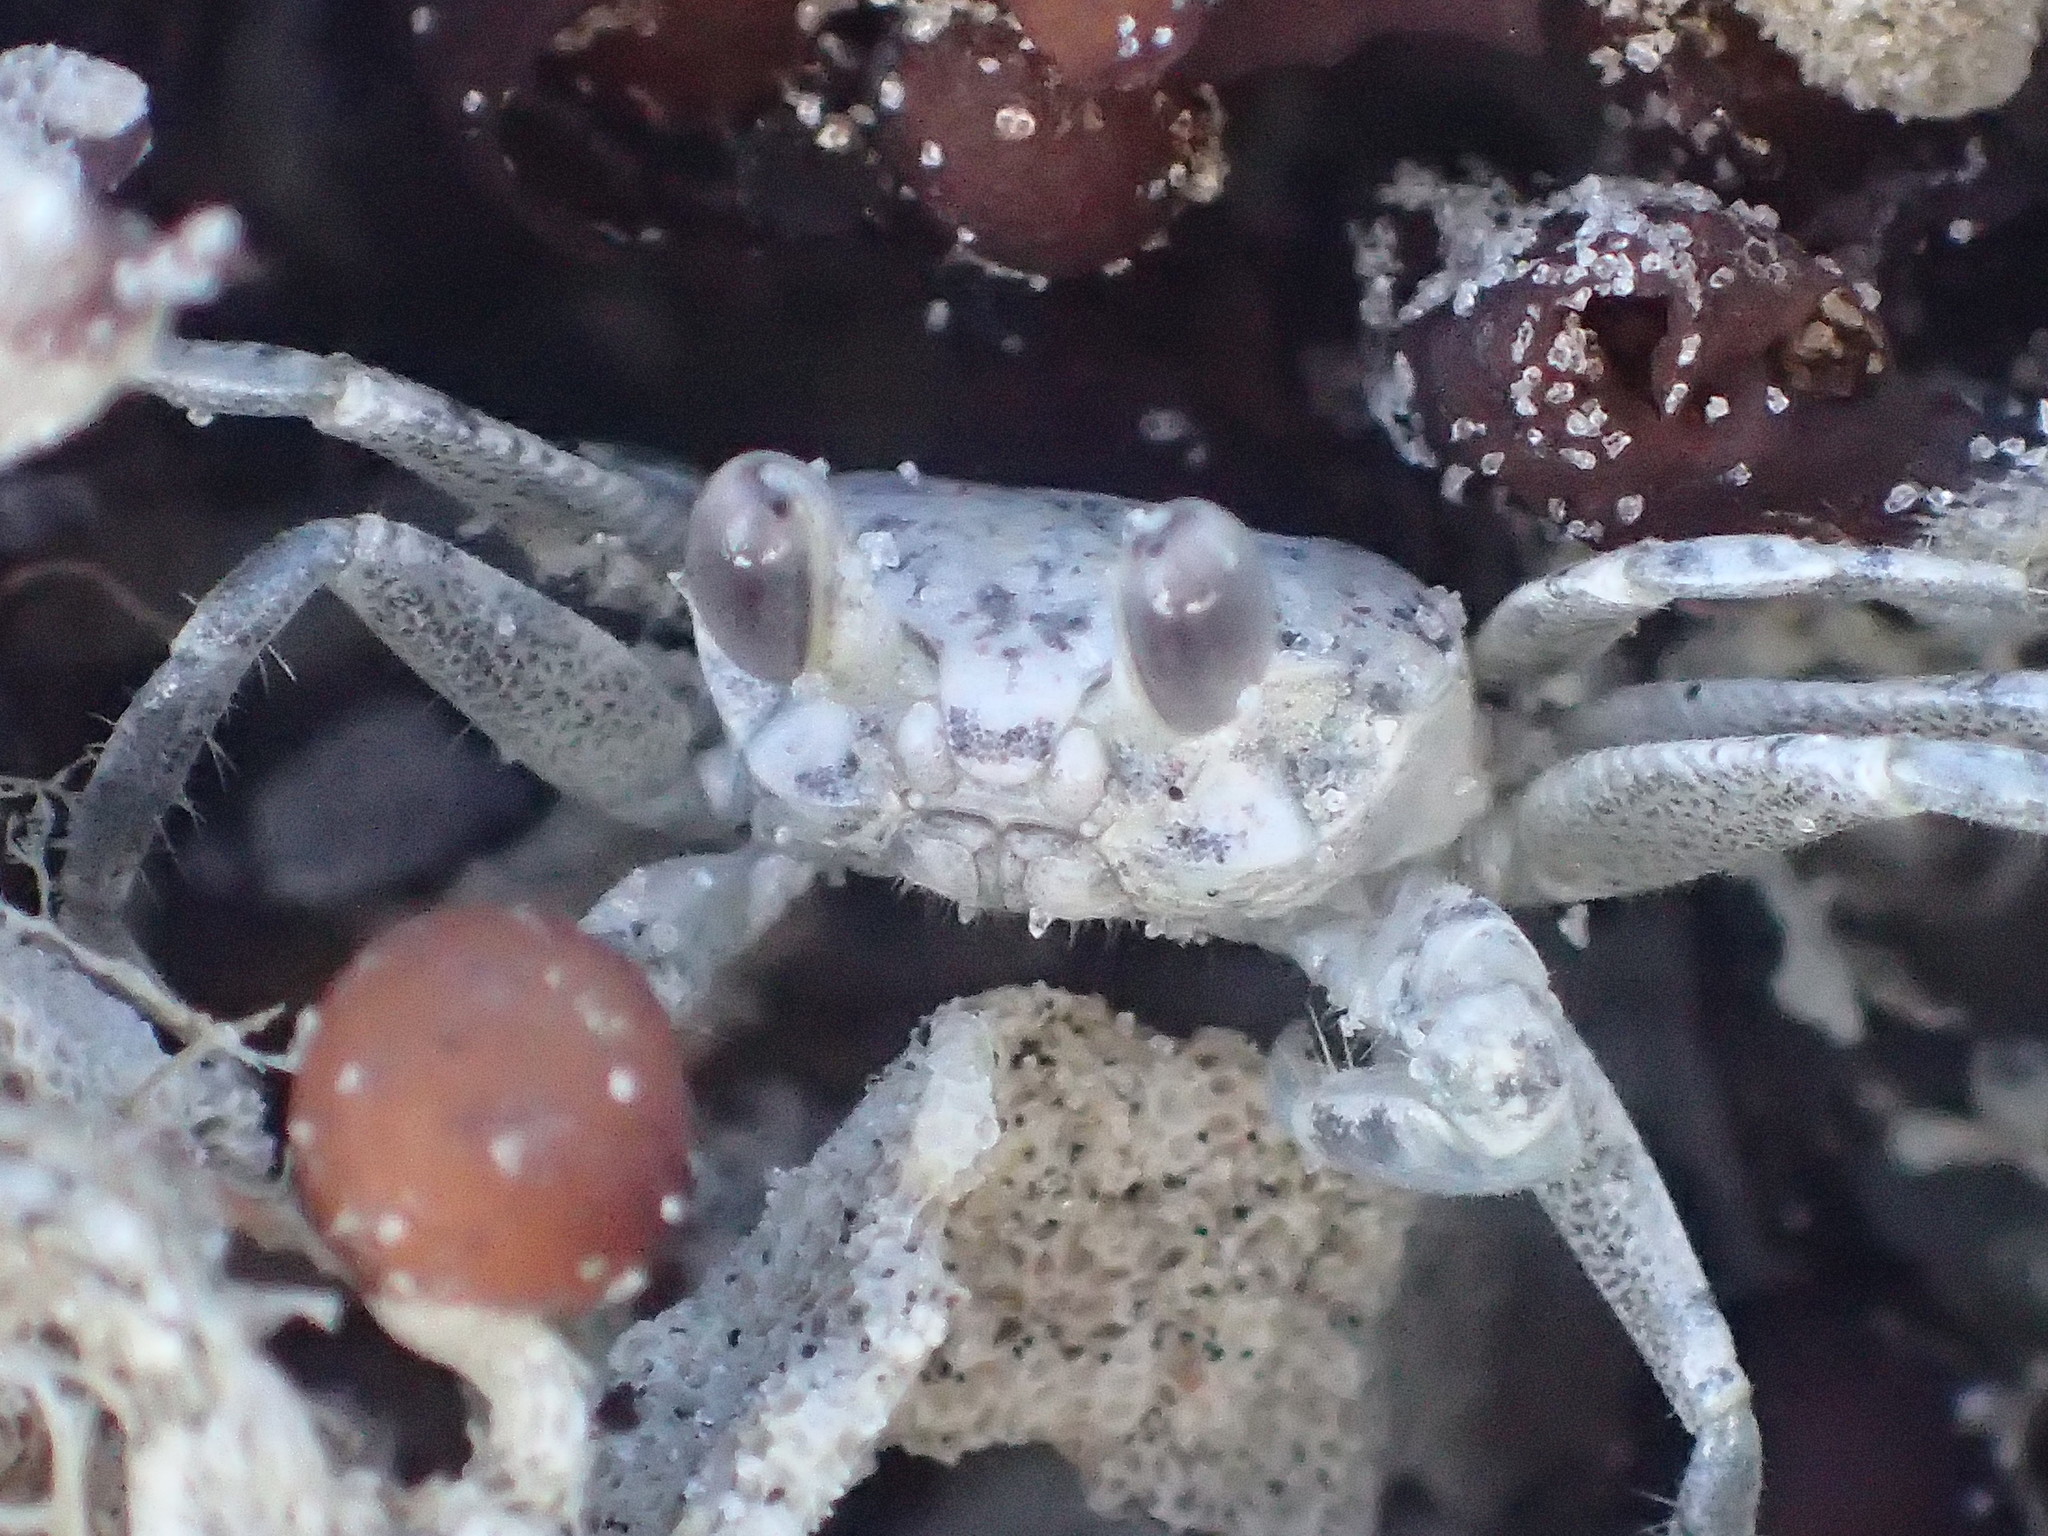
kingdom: Animalia
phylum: Arthropoda
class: Malacostraca
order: Decapoda
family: Ocypodidae
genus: Ocypode
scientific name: Ocypode quadrata
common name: Ghost crab
